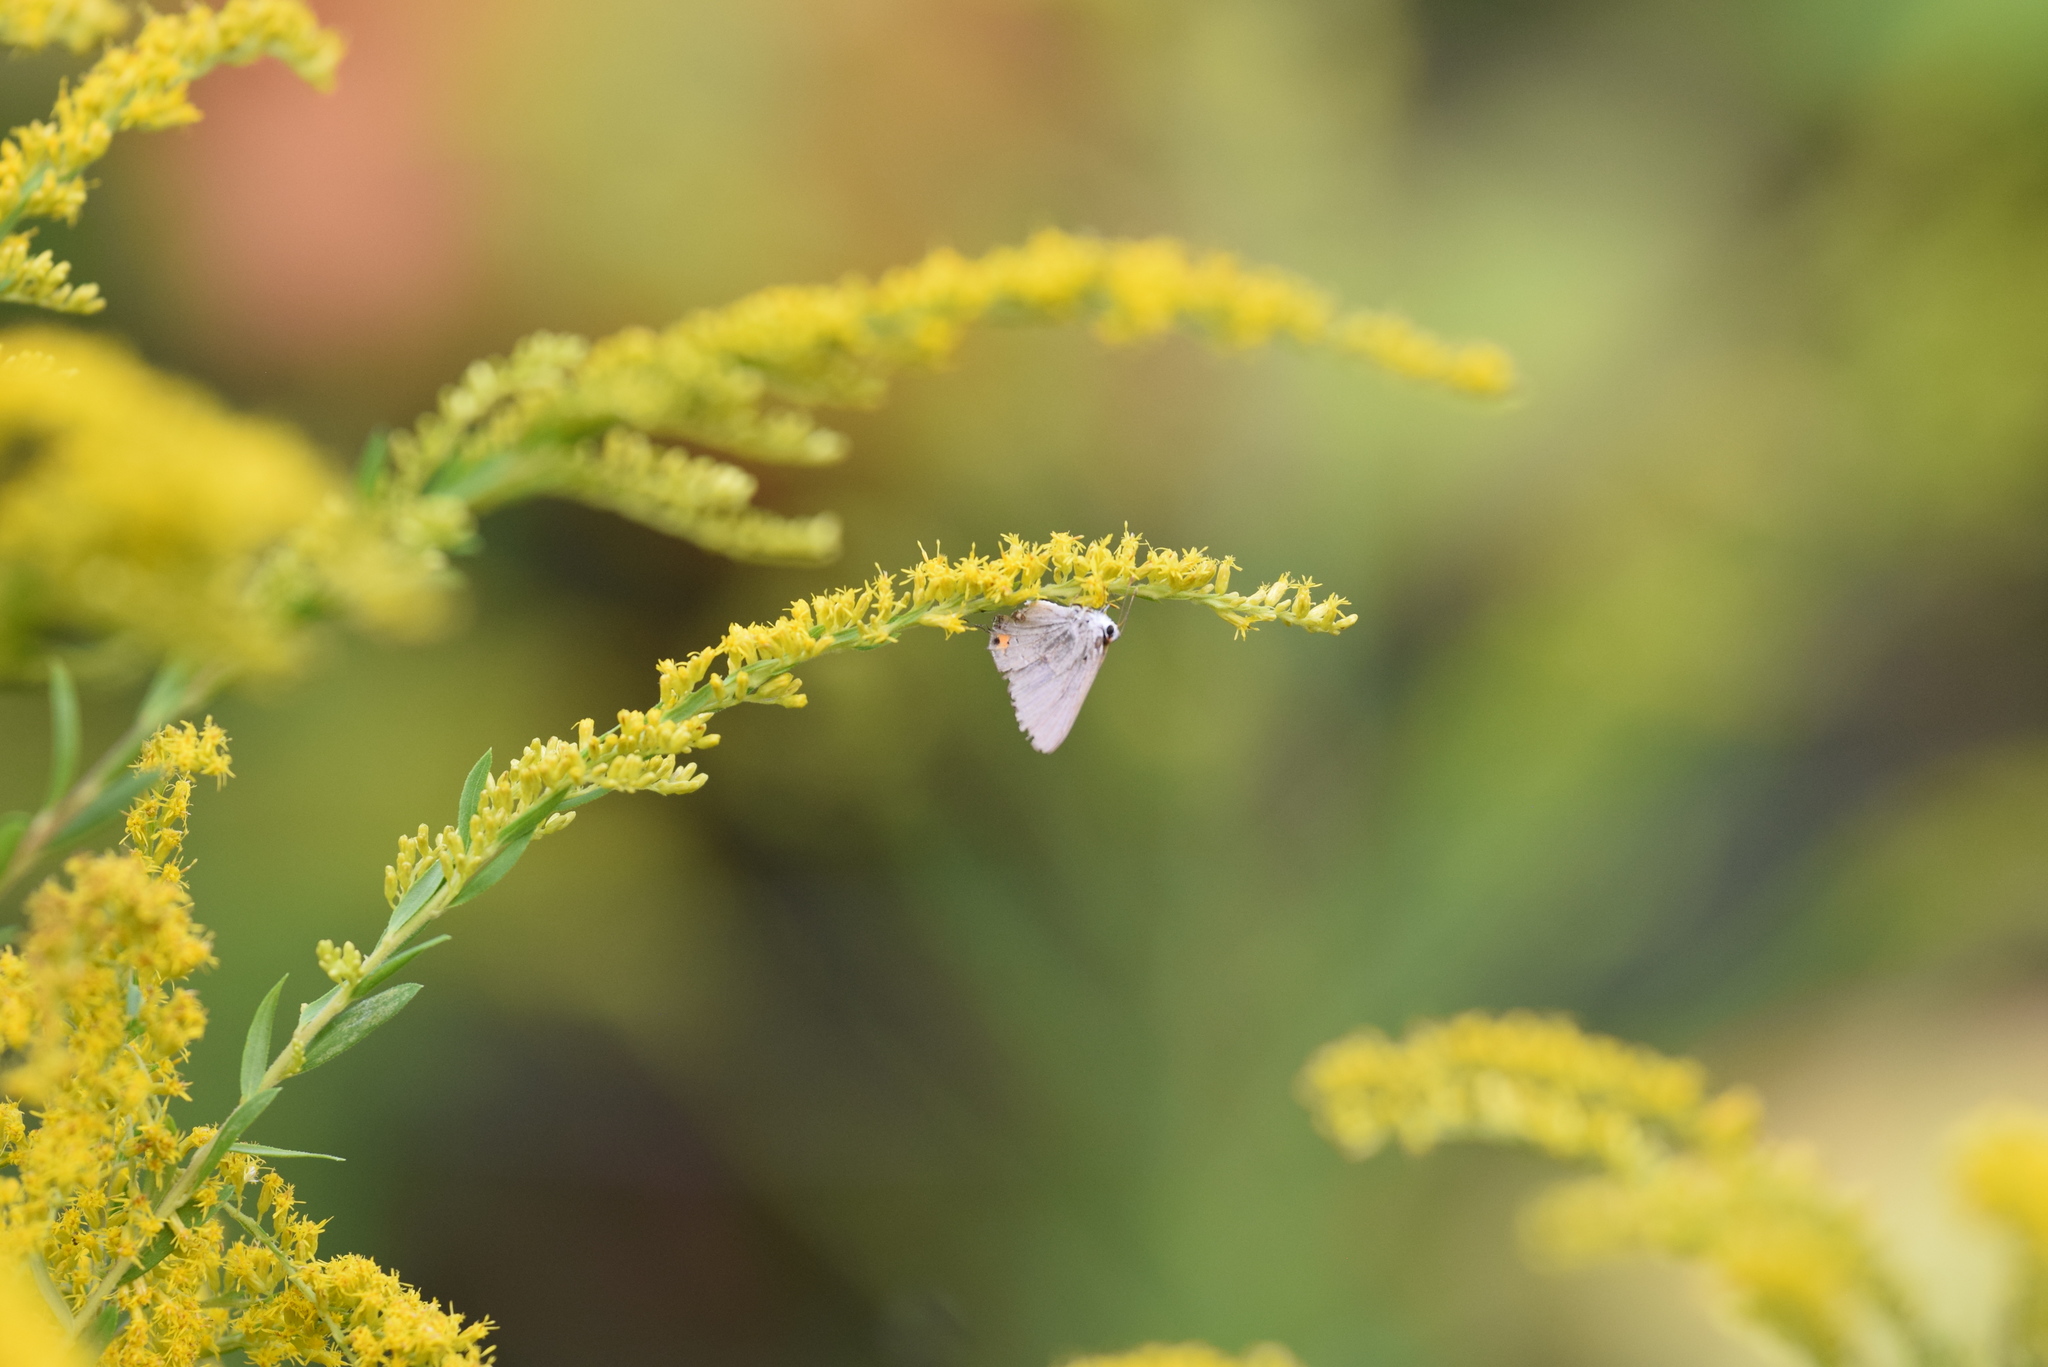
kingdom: Animalia
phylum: Arthropoda
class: Insecta
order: Lepidoptera
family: Lycaenidae
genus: Strymon
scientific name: Strymon melinus
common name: Gray hairstreak
